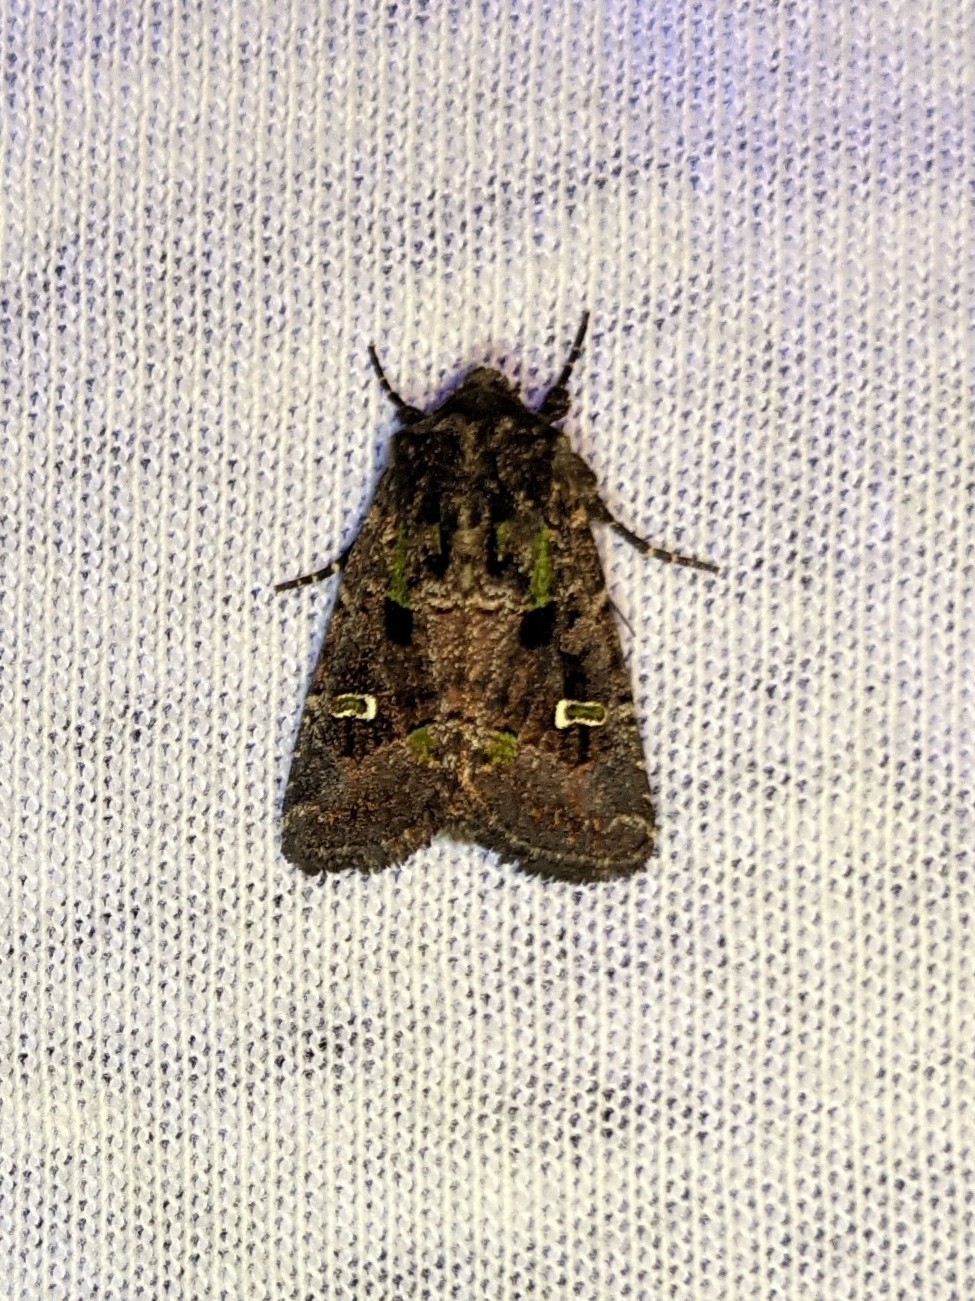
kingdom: Animalia
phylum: Arthropoda
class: Insecta
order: Lepidoptera
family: Noctuidae
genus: Lacinipolia
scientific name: Lacinipolia renigera
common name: Kidney-spotted minor
